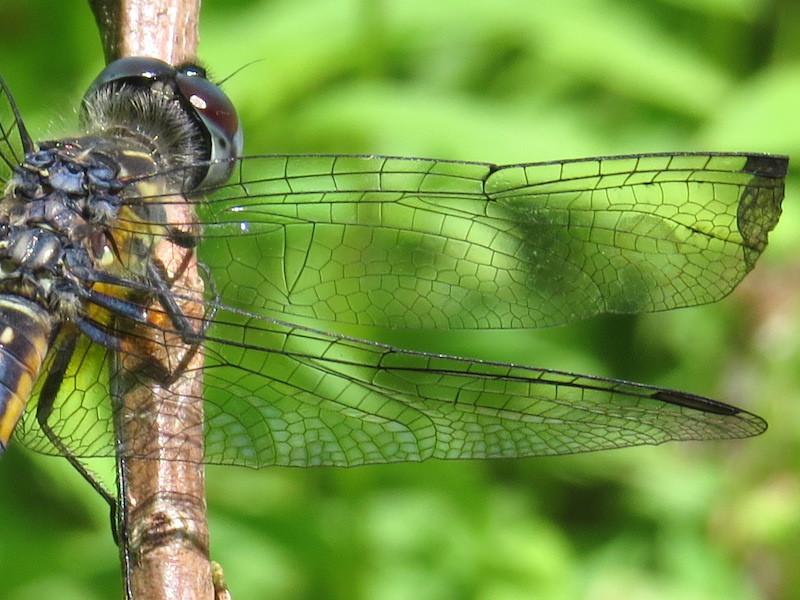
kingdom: Animalia
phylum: Arthropoda
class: Insecta
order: Odonata
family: Libellulidae
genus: Pachydiplax
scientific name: Pachydiplax longipennis
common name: Blue dasher
